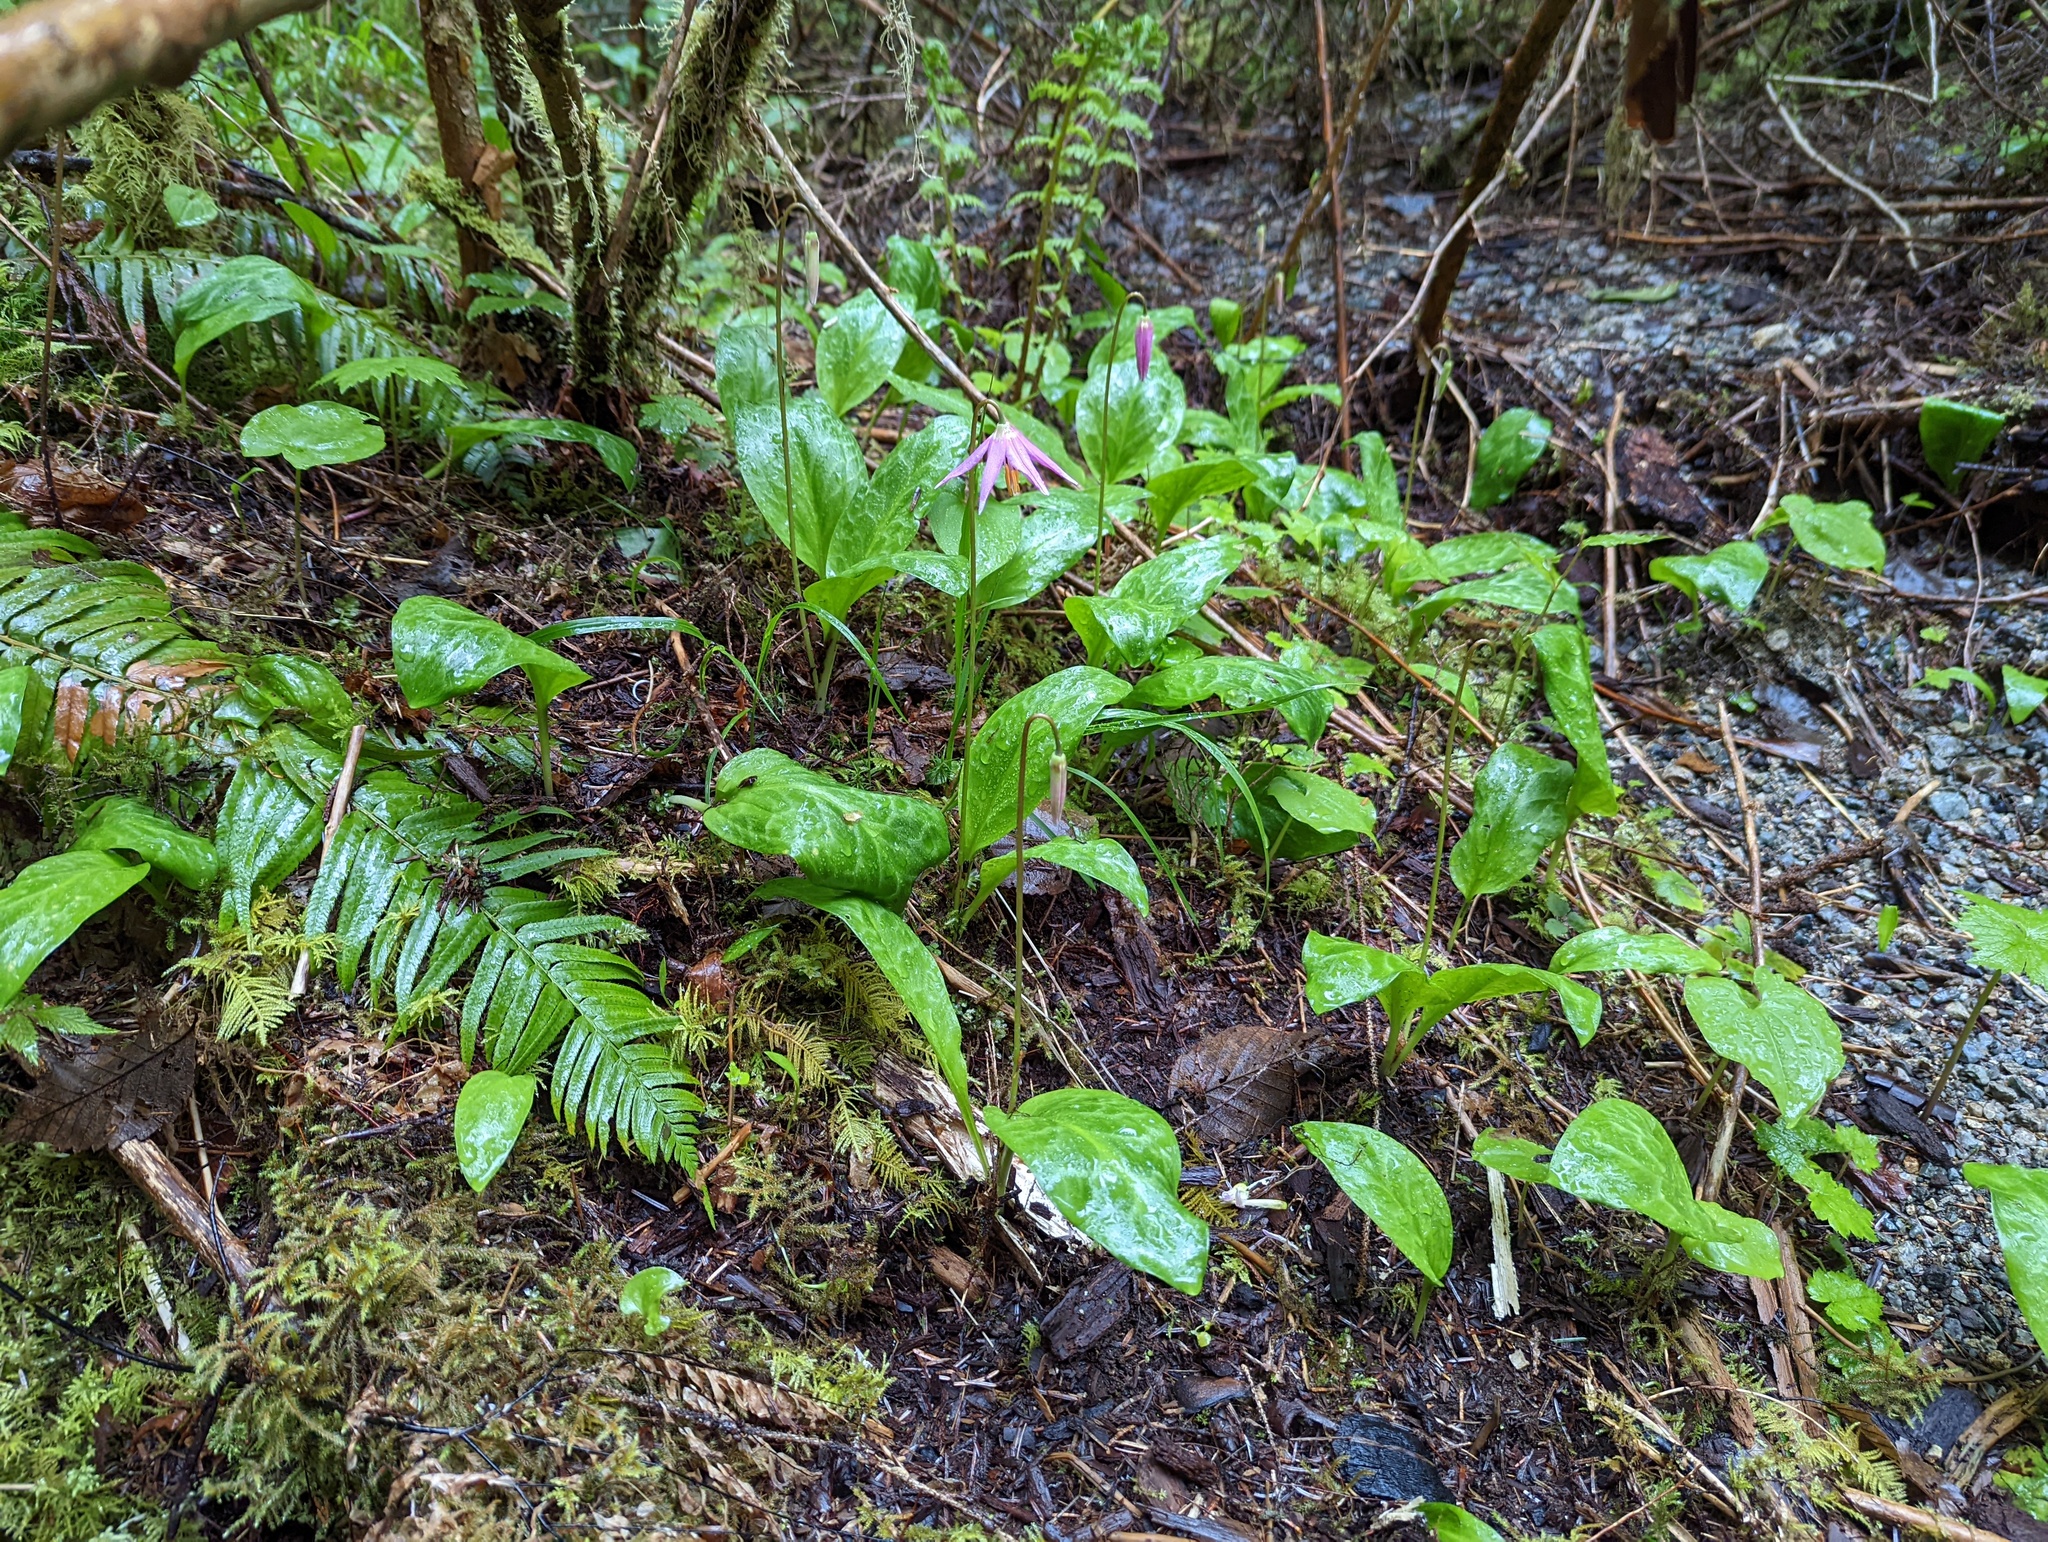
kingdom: Plantae
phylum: Tracheophyta
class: Liliopsida
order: Liliales
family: Liliaceae
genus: Erythronium
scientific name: Erythronium revolutum
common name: Pink fawn-lily
